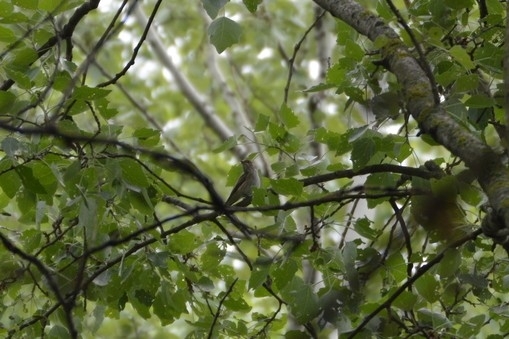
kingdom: Animalia
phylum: Chordata
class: Aves
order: Passeriformes
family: Acrocephalidae
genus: Hippolais
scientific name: Hippolais icterina
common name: Icterine warbler
